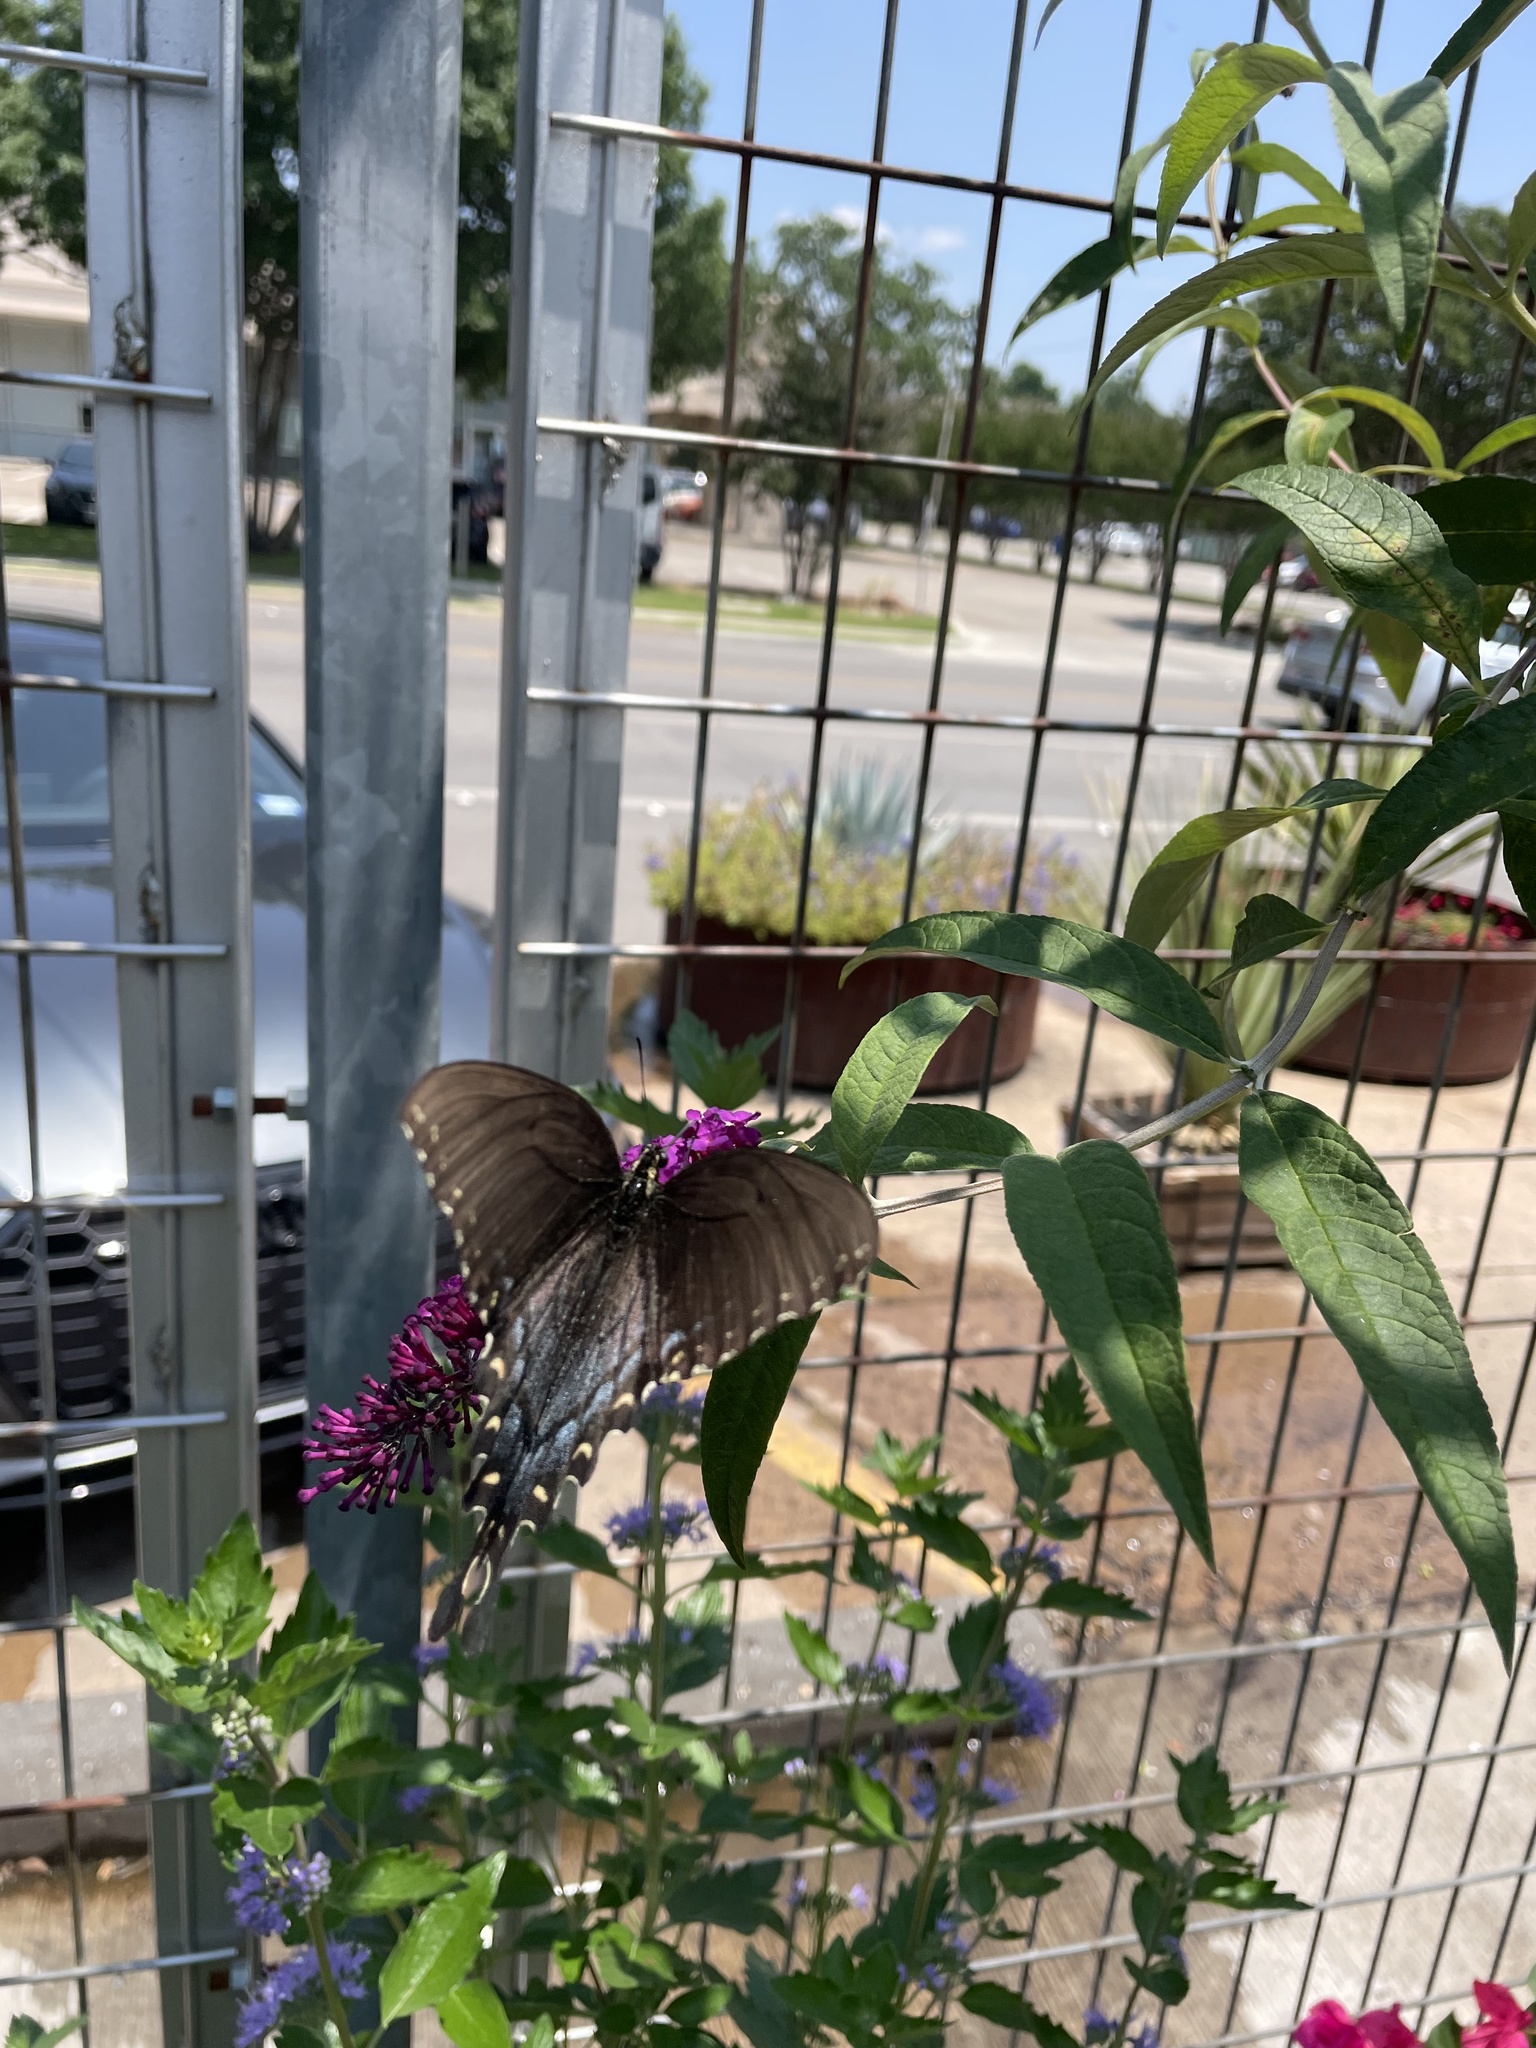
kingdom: Animalia
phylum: Arthropoda
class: Insecta
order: Lepidoptera
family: Papilionidae
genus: Papilio
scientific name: Papilio glaucus
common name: Tiger swallowtail
